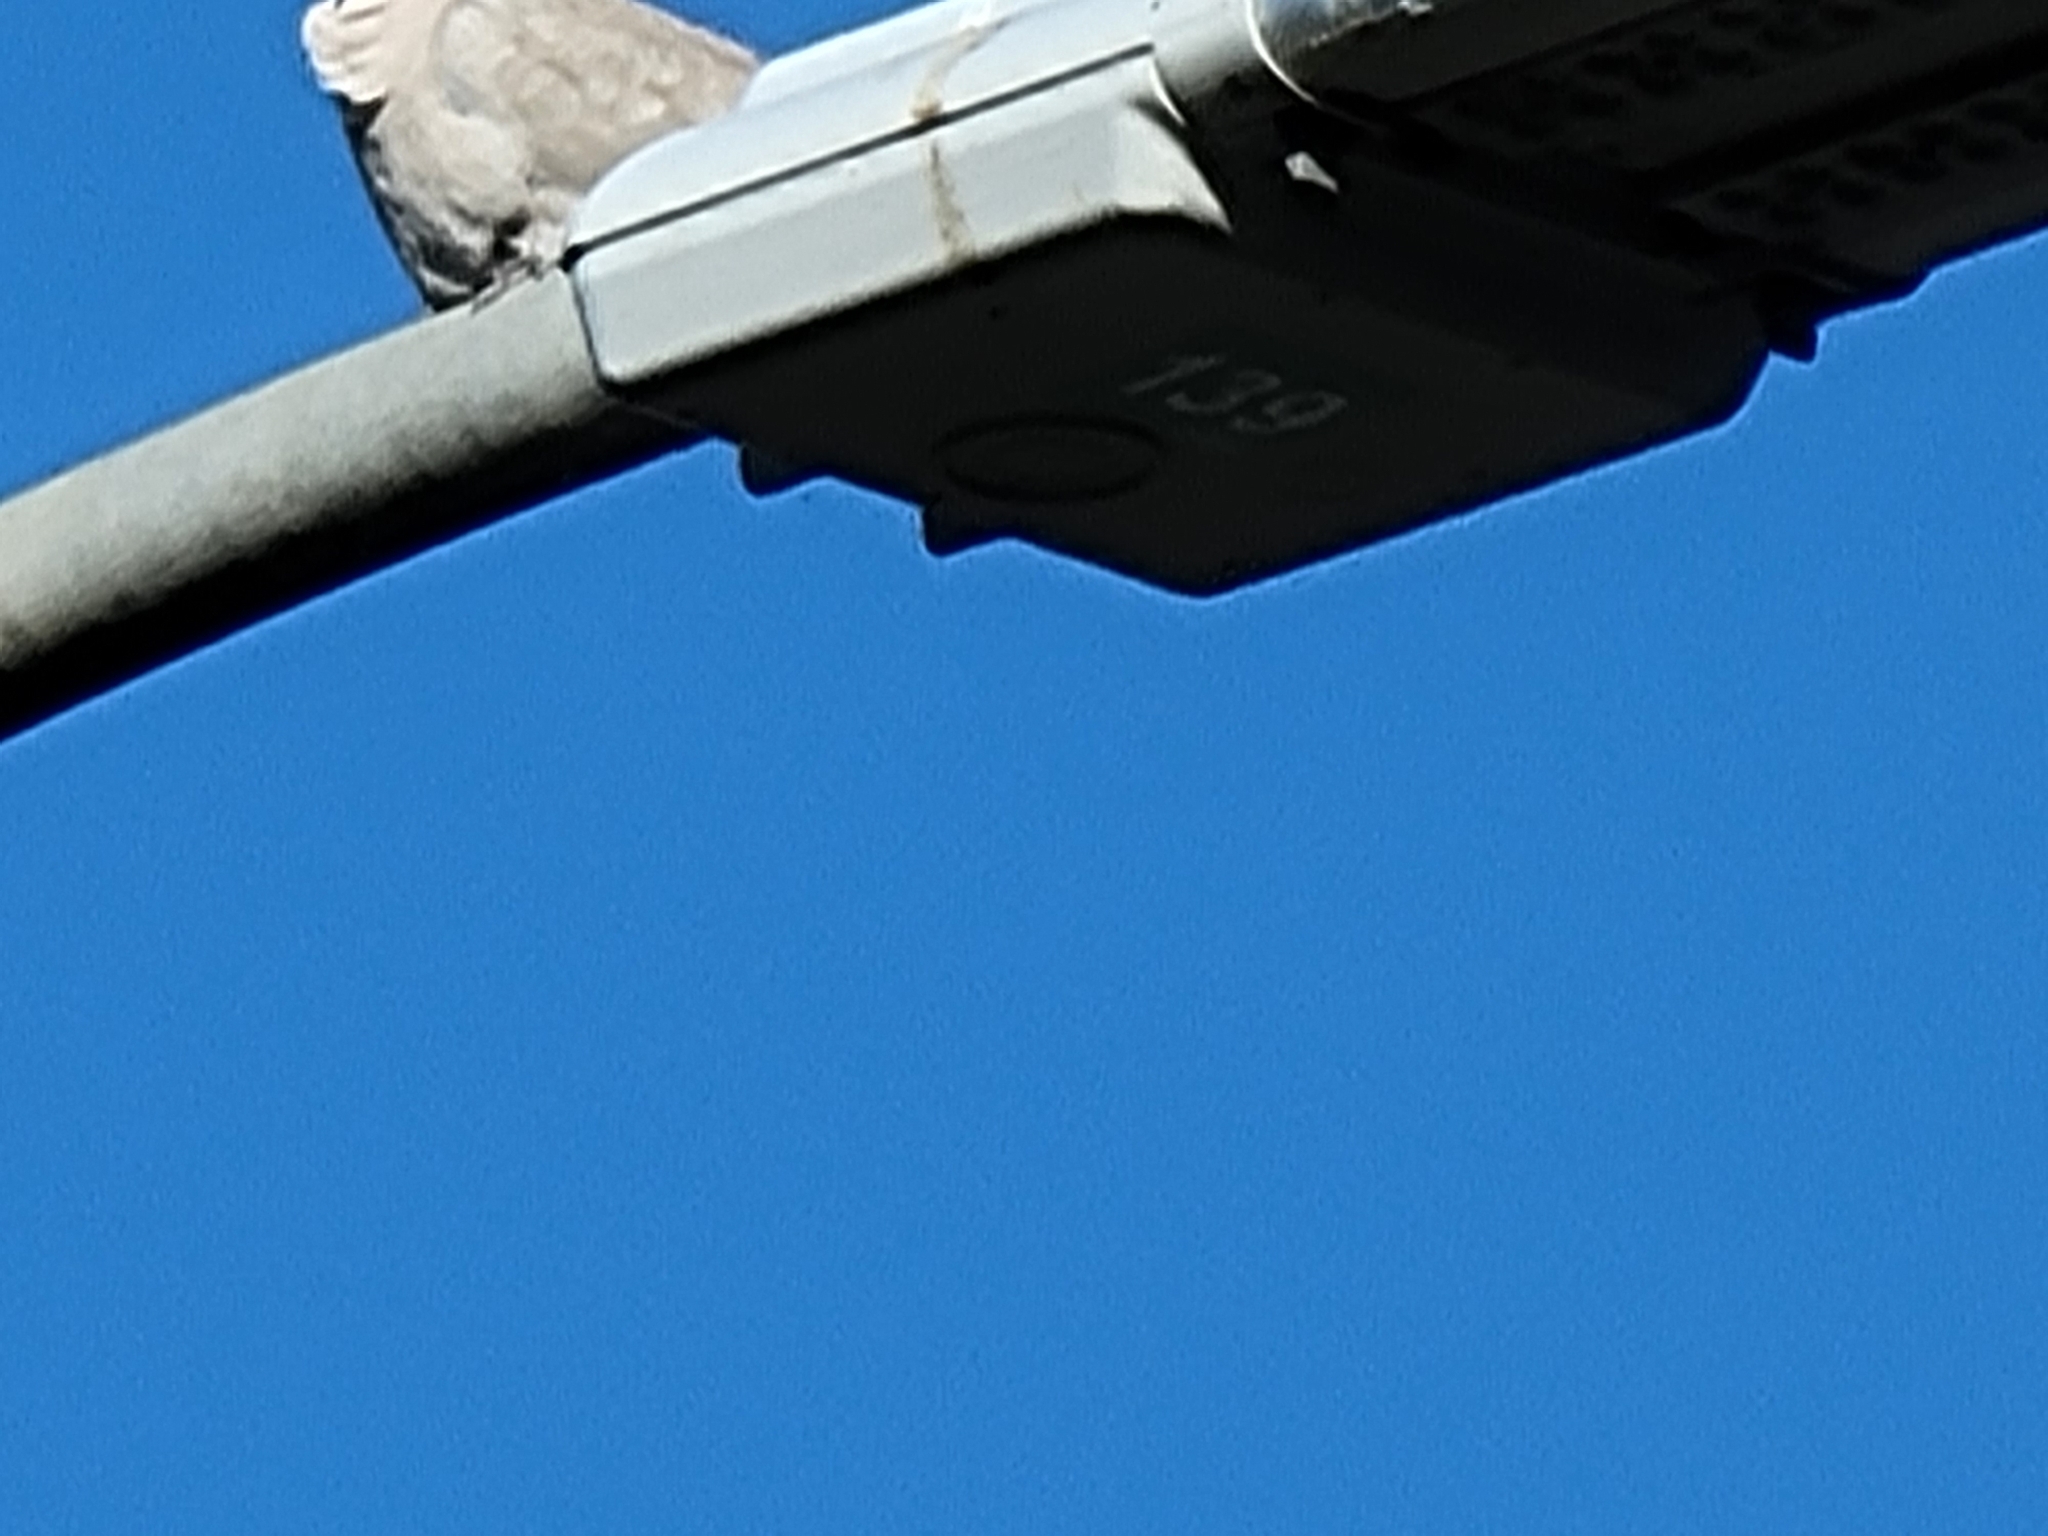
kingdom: Animalia
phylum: Chordata
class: Aves
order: Columbiformes
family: Columbidae
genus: Streptopelia
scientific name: Streptopelia decaocto
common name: Eurasian collared dove
